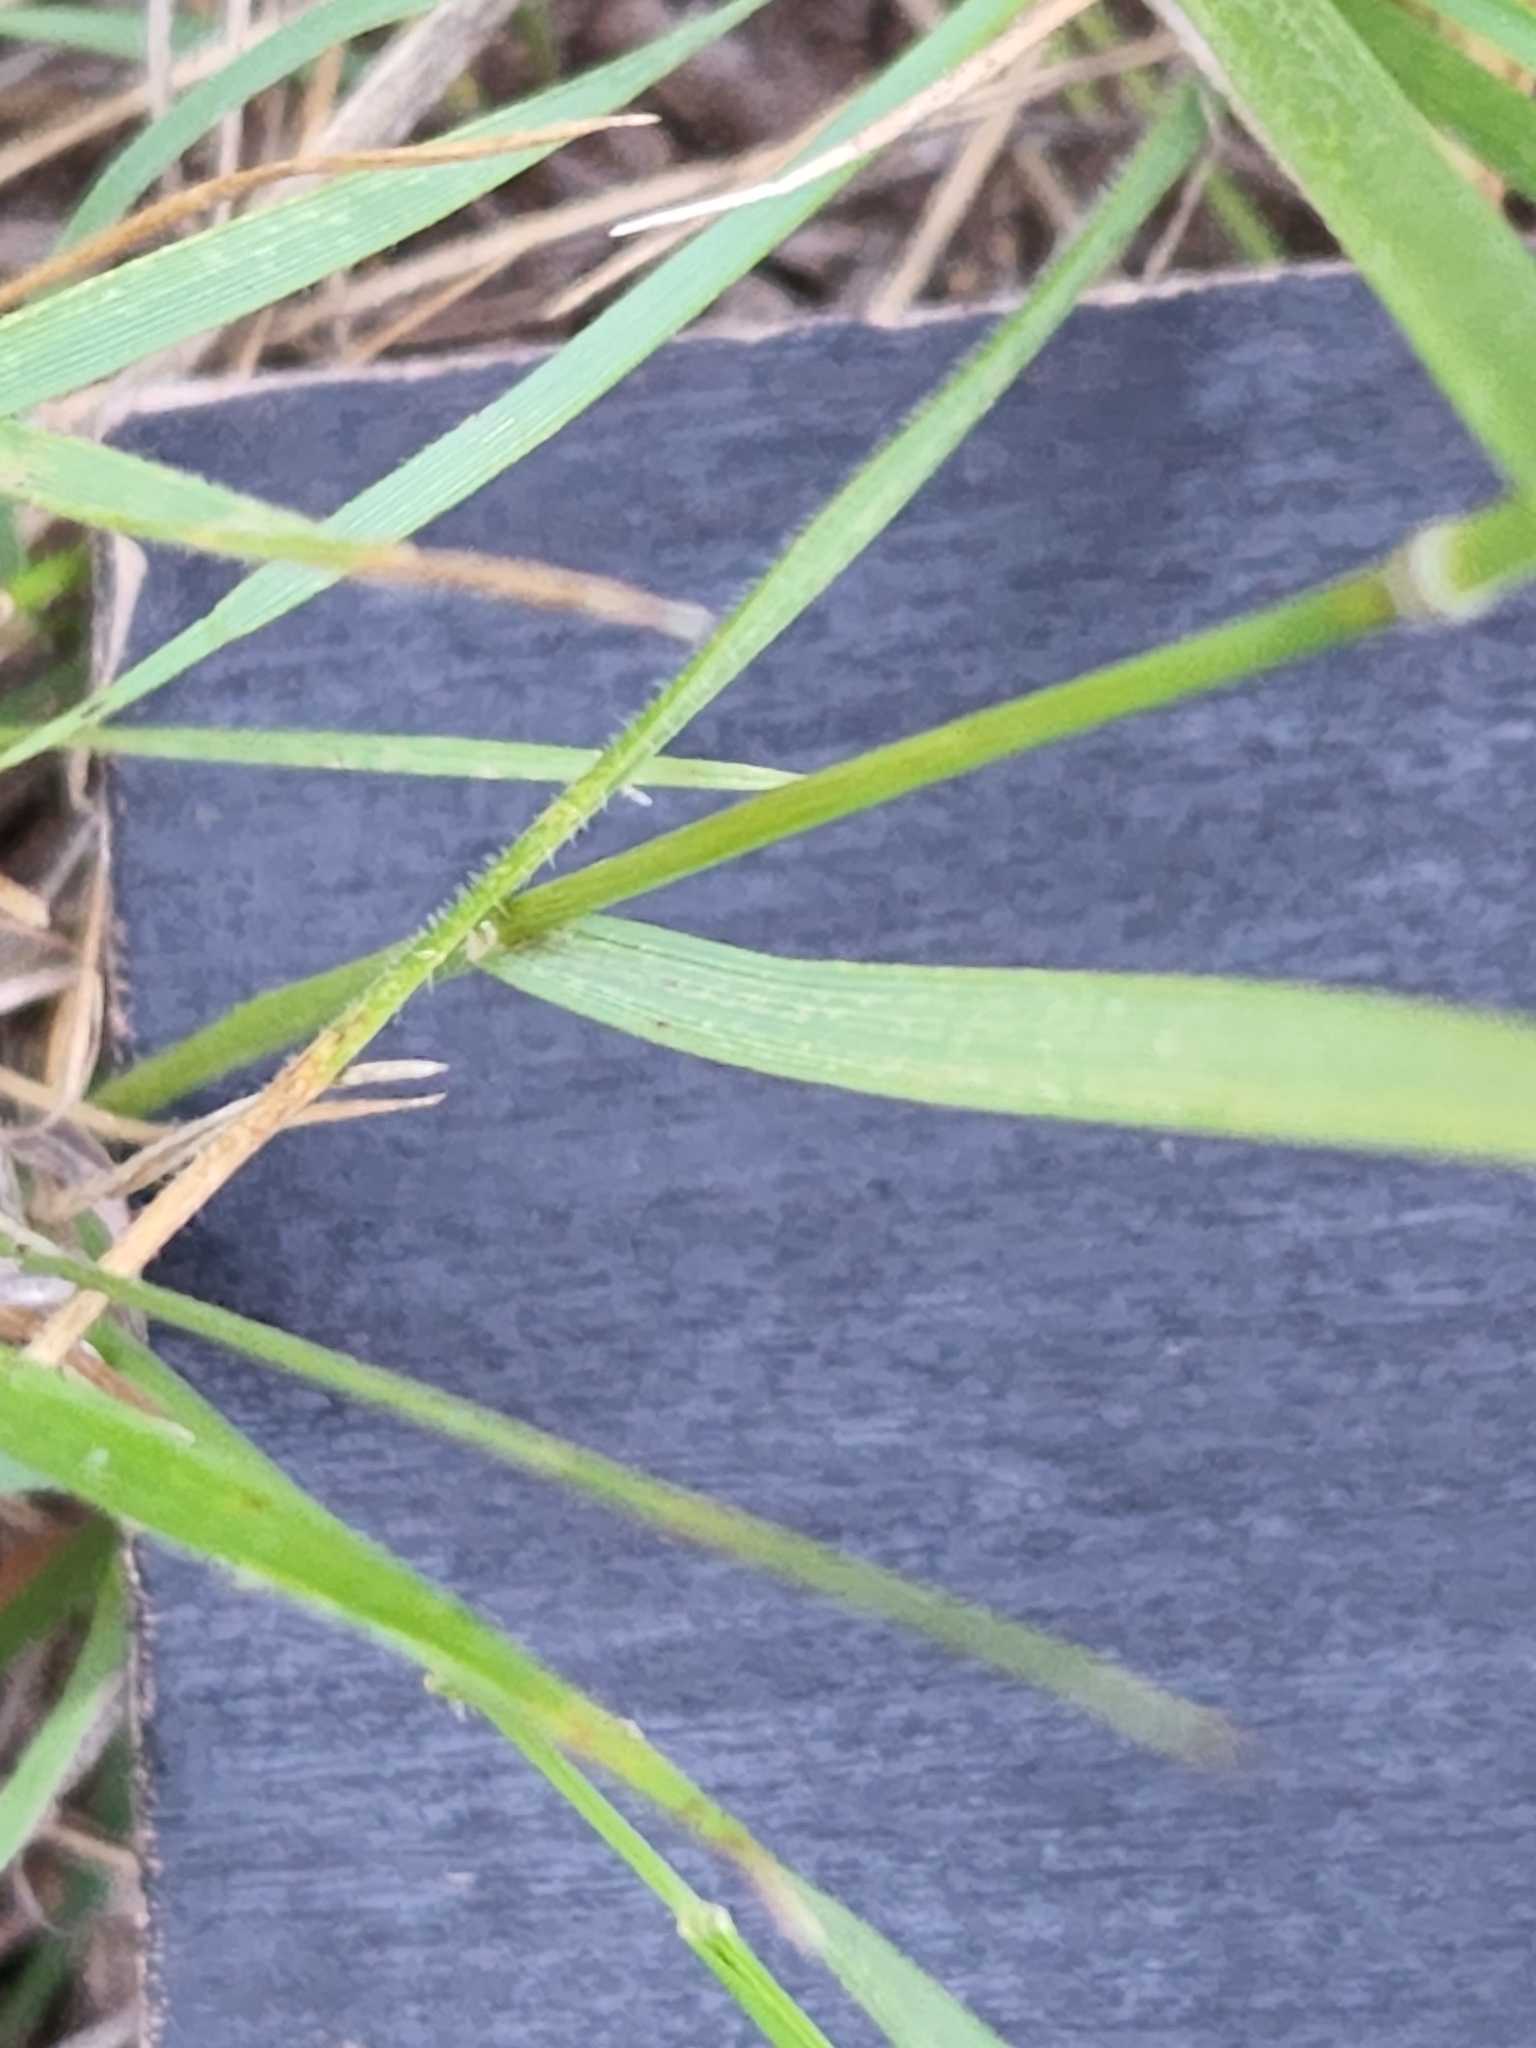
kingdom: Plantae
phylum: Tracheophyta
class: Liliopsida
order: Poales
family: Poaceae
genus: Nassella
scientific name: Nassella leucotricha
